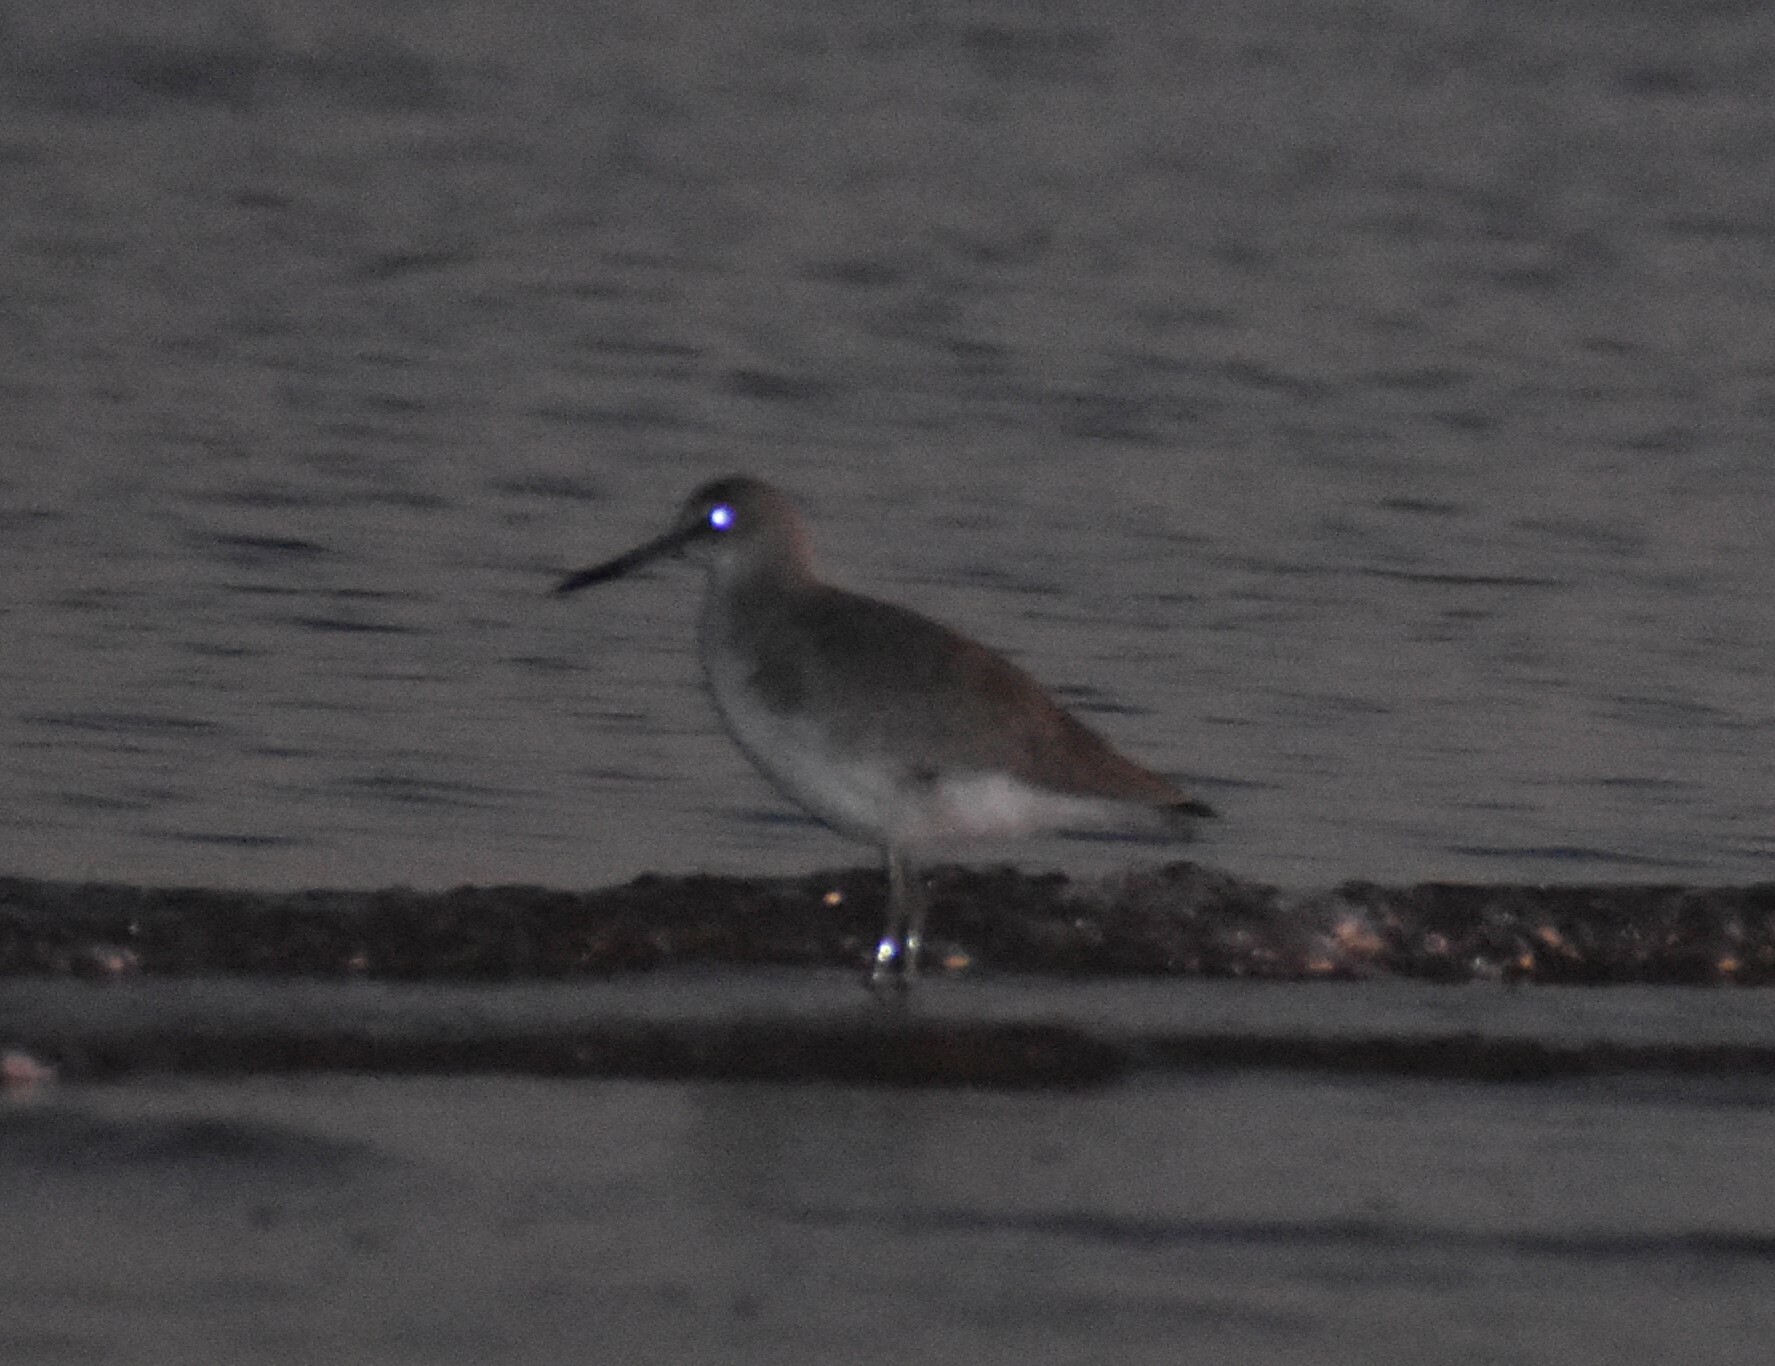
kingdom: Animalia
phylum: Chordata
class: Aves
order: Charadriiformes
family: Scolopacidae
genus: Tringa
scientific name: Tringa semipalmata
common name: Willet
